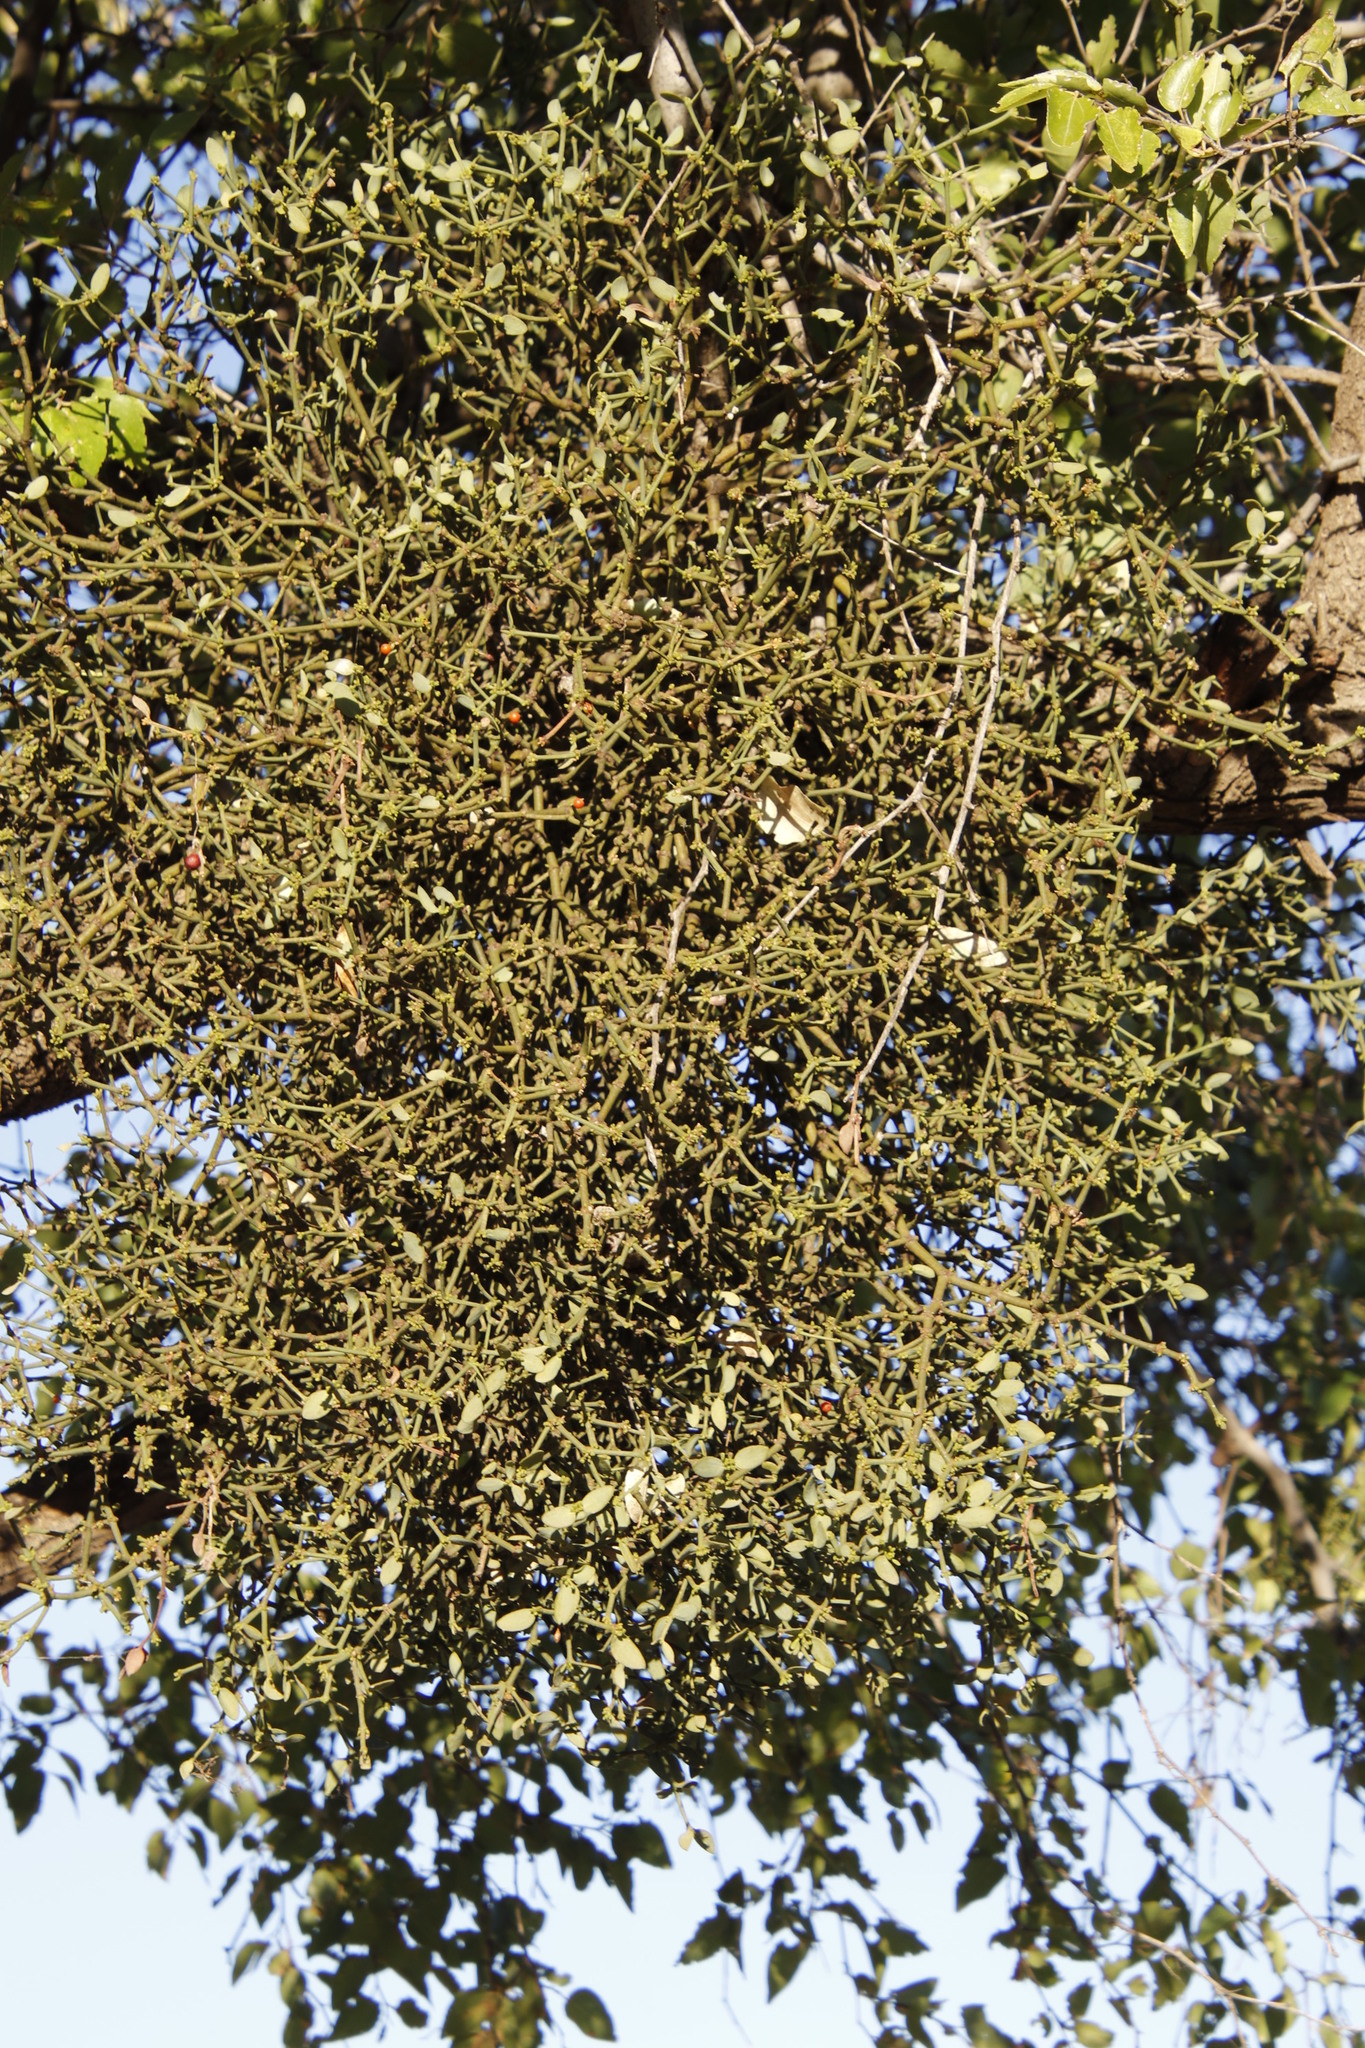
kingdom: Plantae
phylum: Tracheophyta
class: Magnoliopsida
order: Santalales
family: Viscaceae
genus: Viscum
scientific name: Viscum rotundifolium
